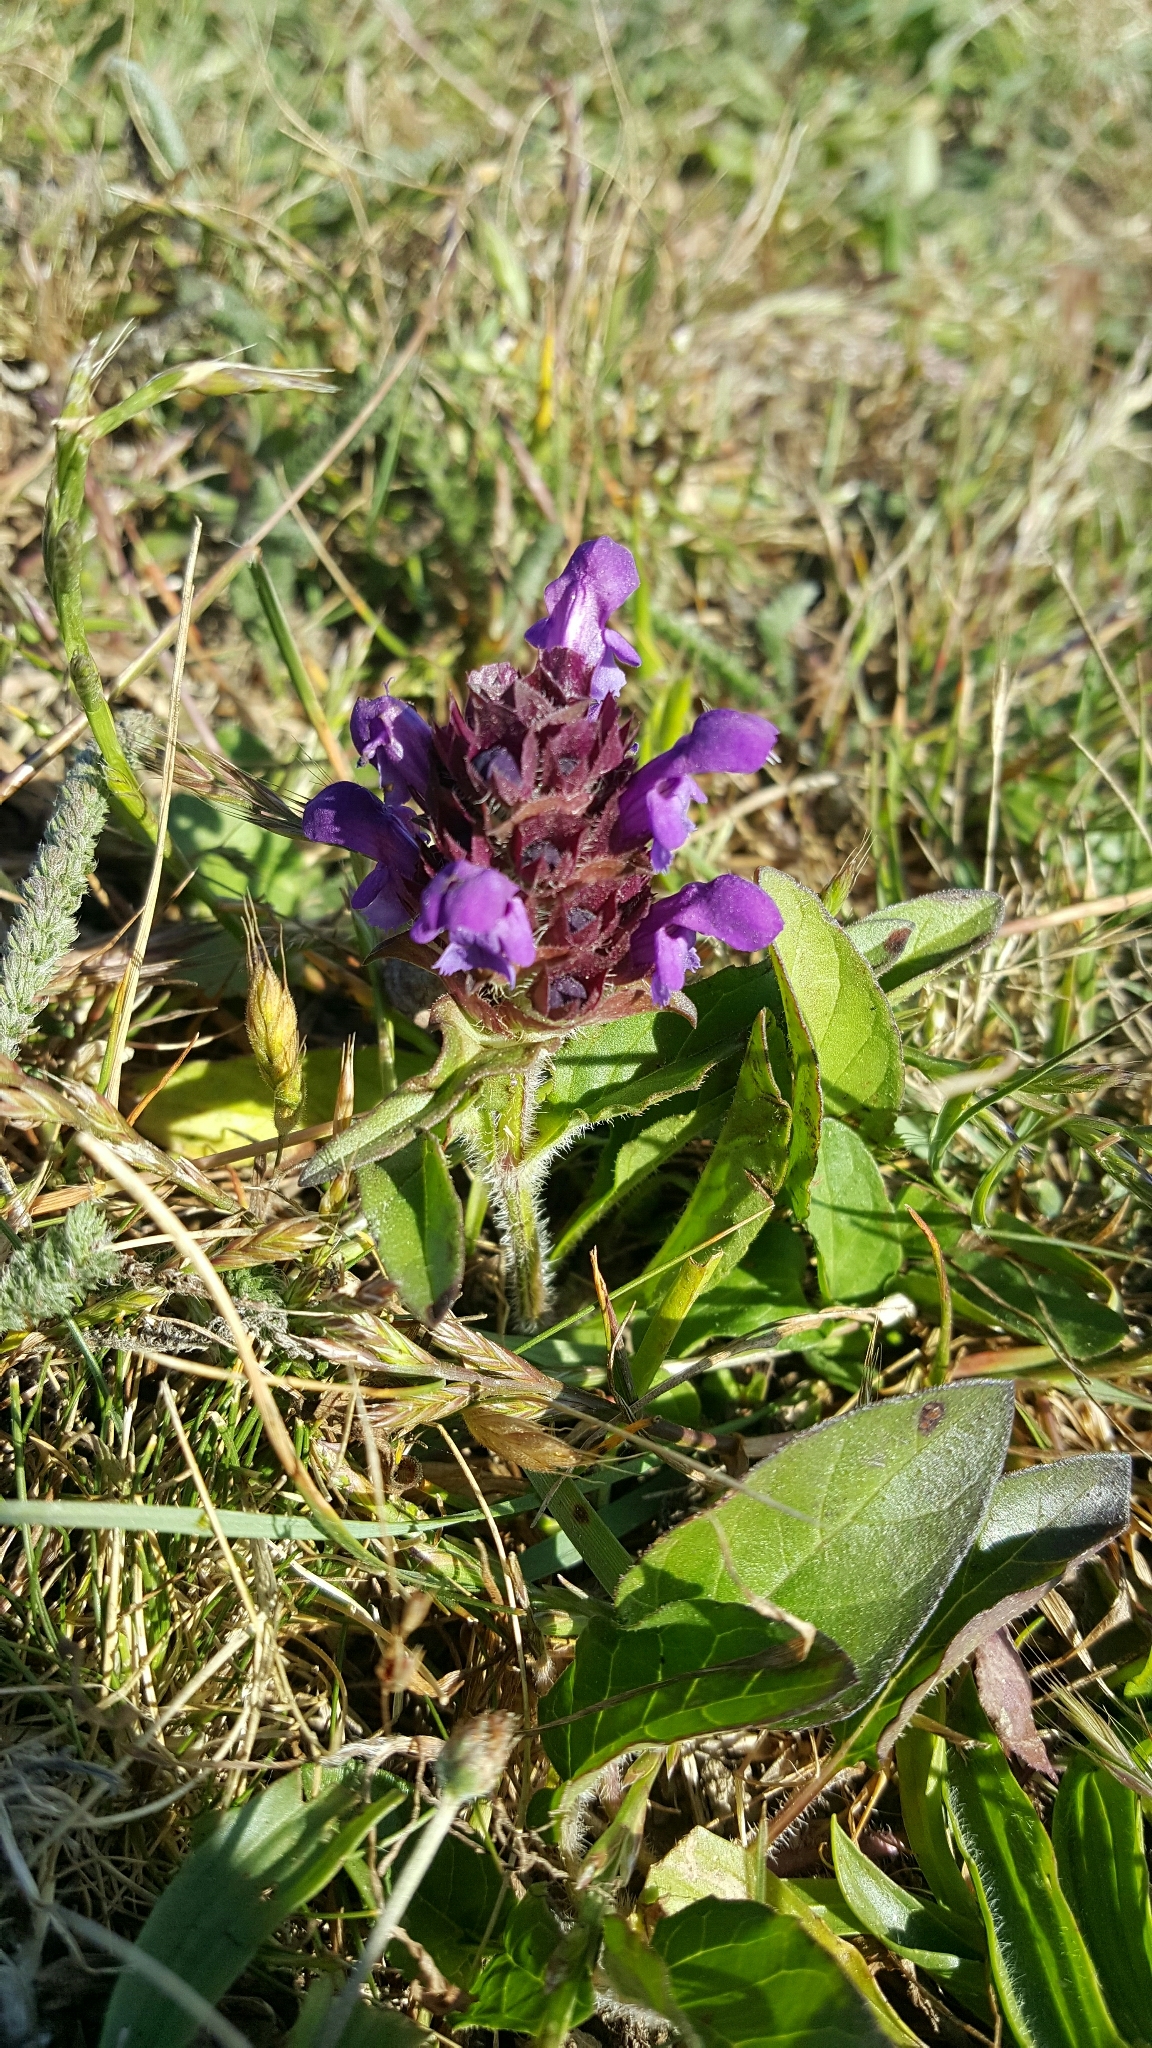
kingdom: Plantae
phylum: Tracheophyta
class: Magnoliopsida
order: Lamiales
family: Lamiaceae
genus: Prunella
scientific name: Prunella vulgaris
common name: Heal-all
